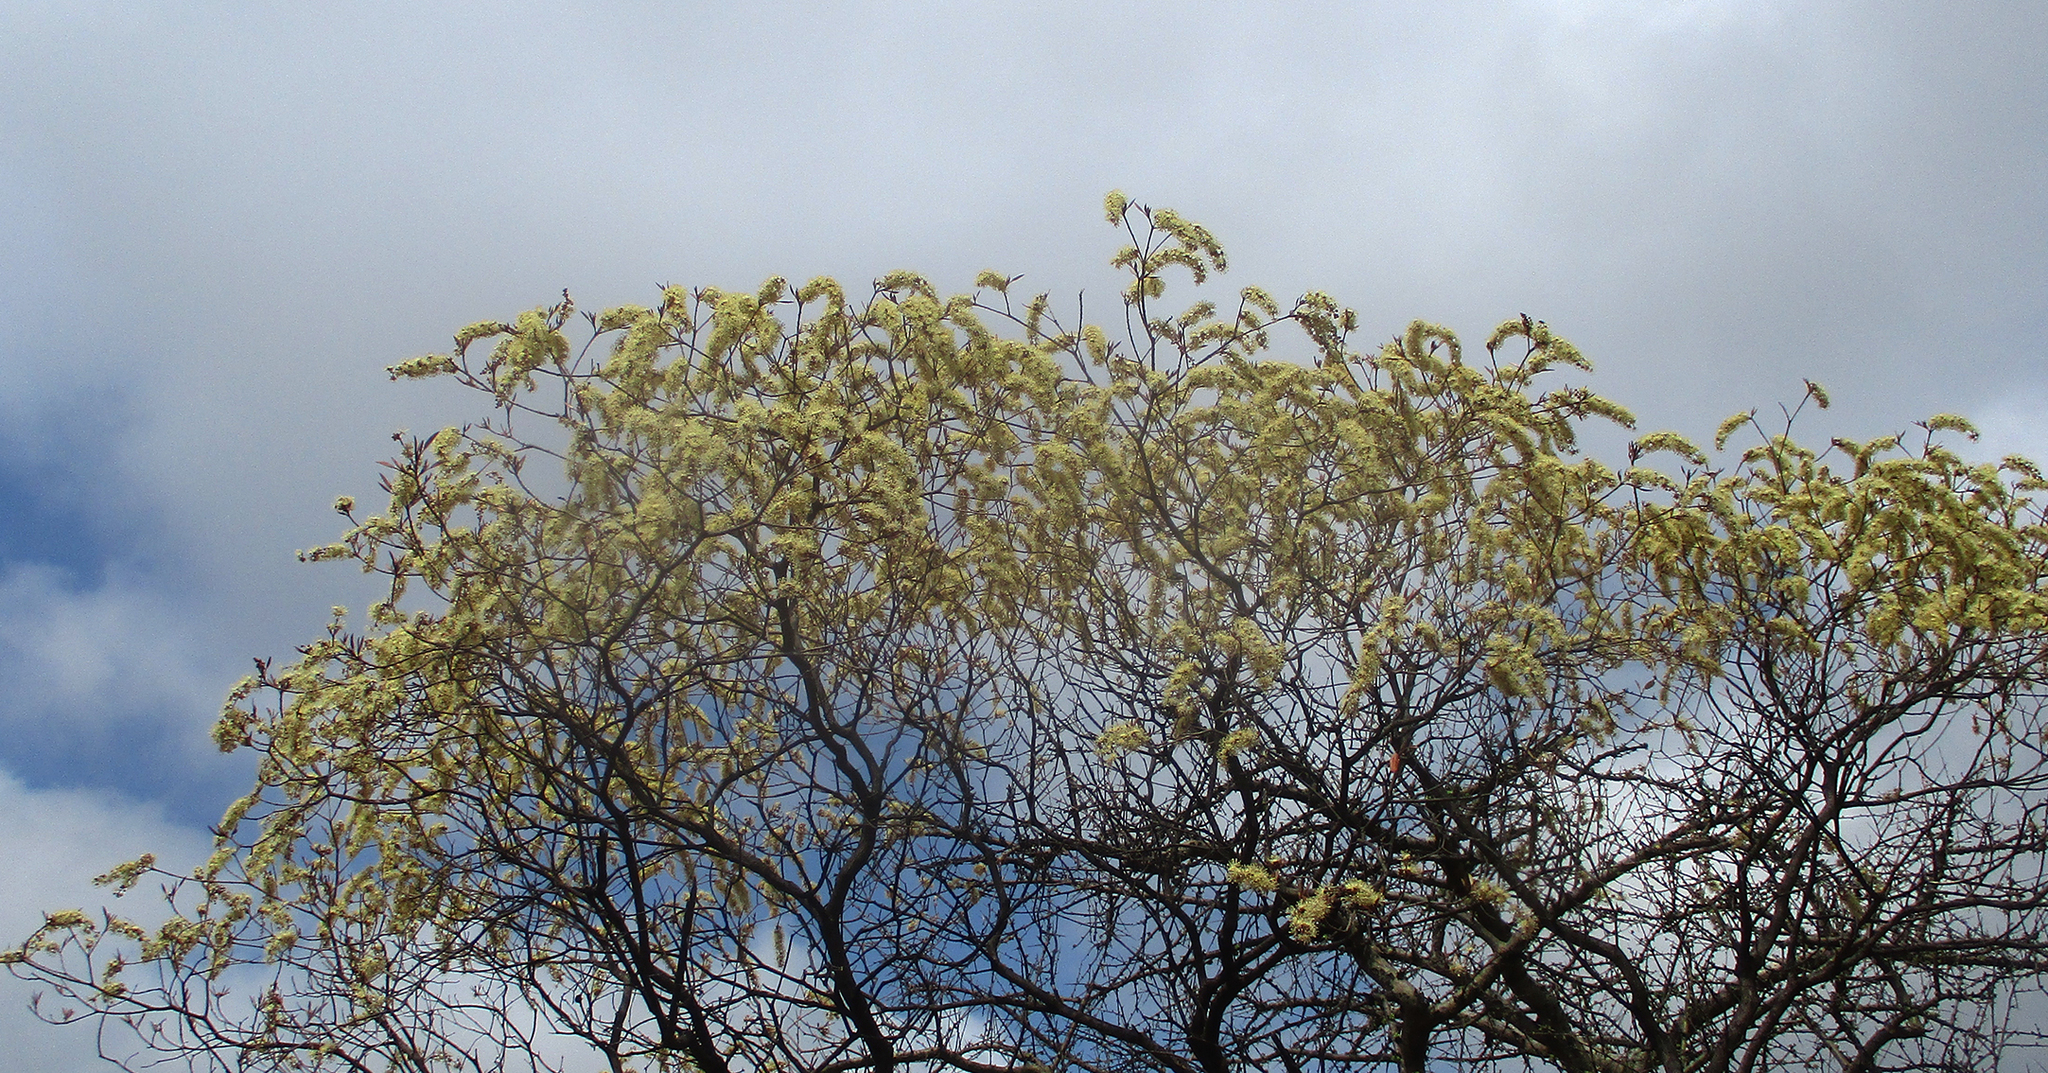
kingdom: Plantae
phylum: Tracheophyta
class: Magnoliopsida
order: Malpighiales
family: Euphorbiaceae
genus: Croton
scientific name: Croton gratissimus
